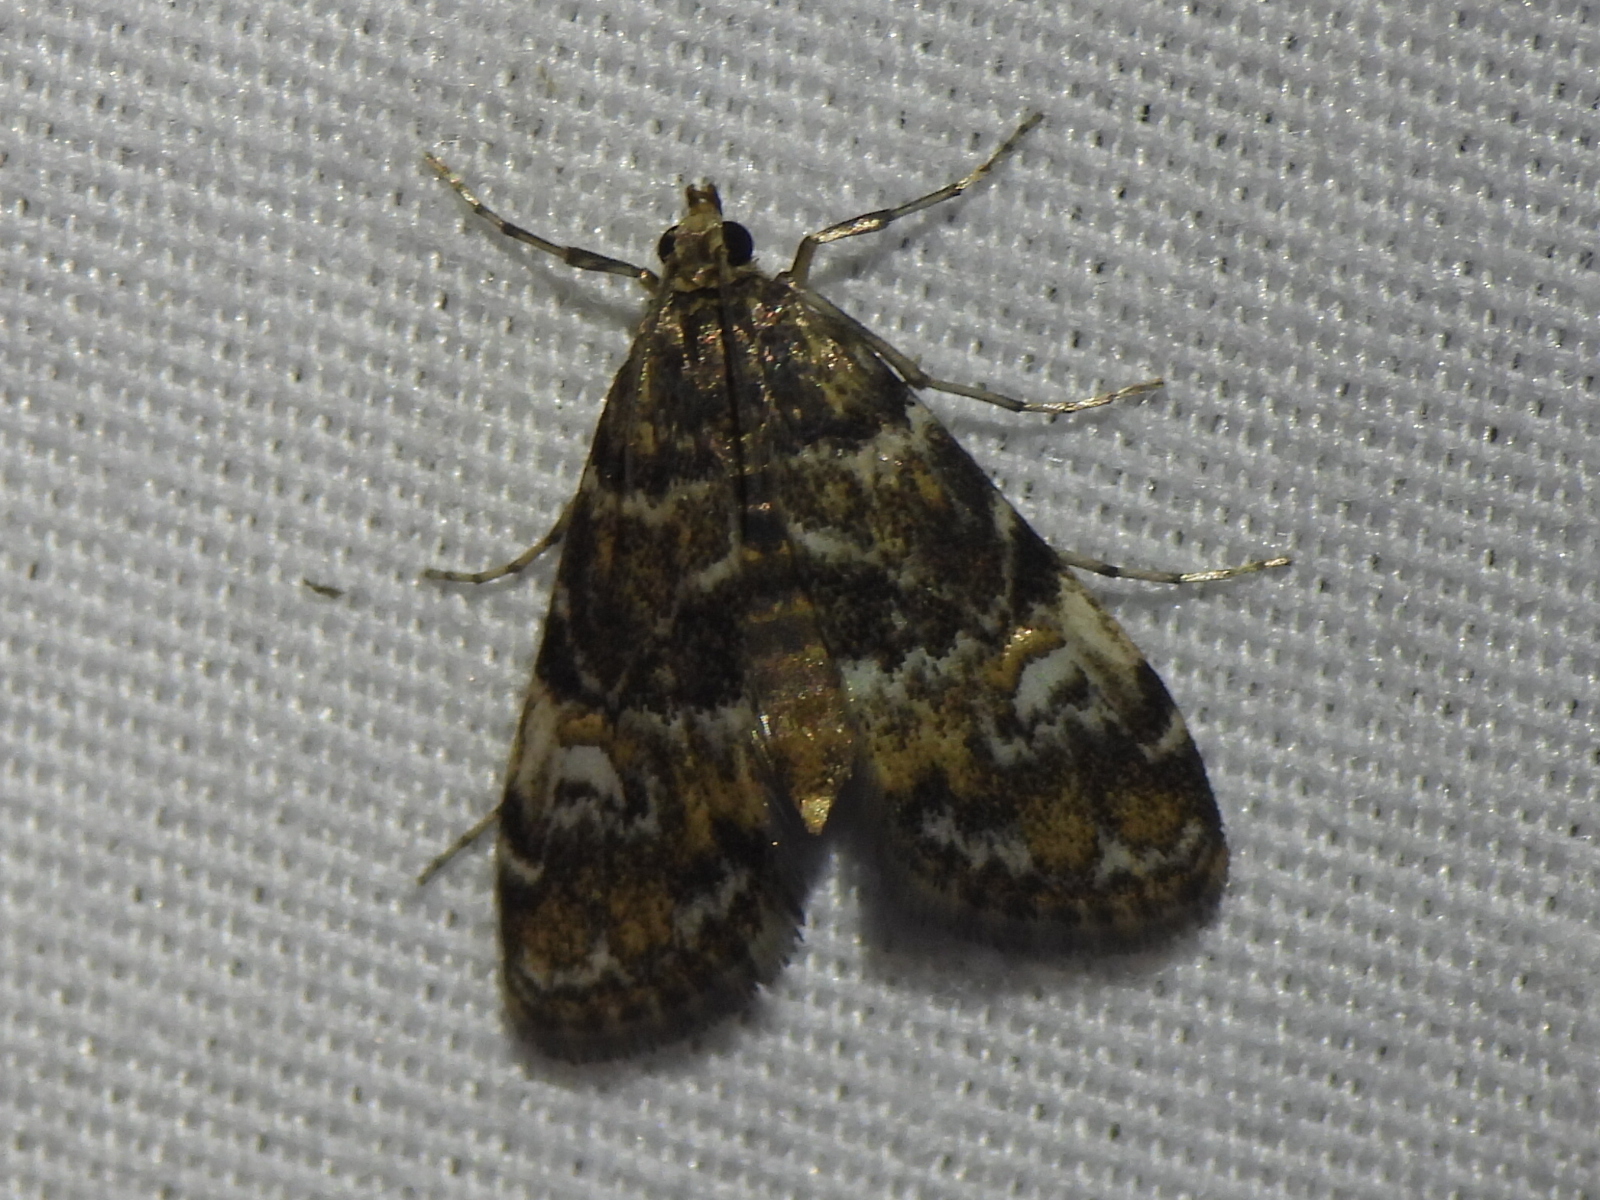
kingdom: Animalia
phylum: Arthropoda
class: Insecta
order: Lepidoptera
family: Crambidae
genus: Elophila
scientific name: Elophila obliteralis
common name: Waterlily leafcutter moth
